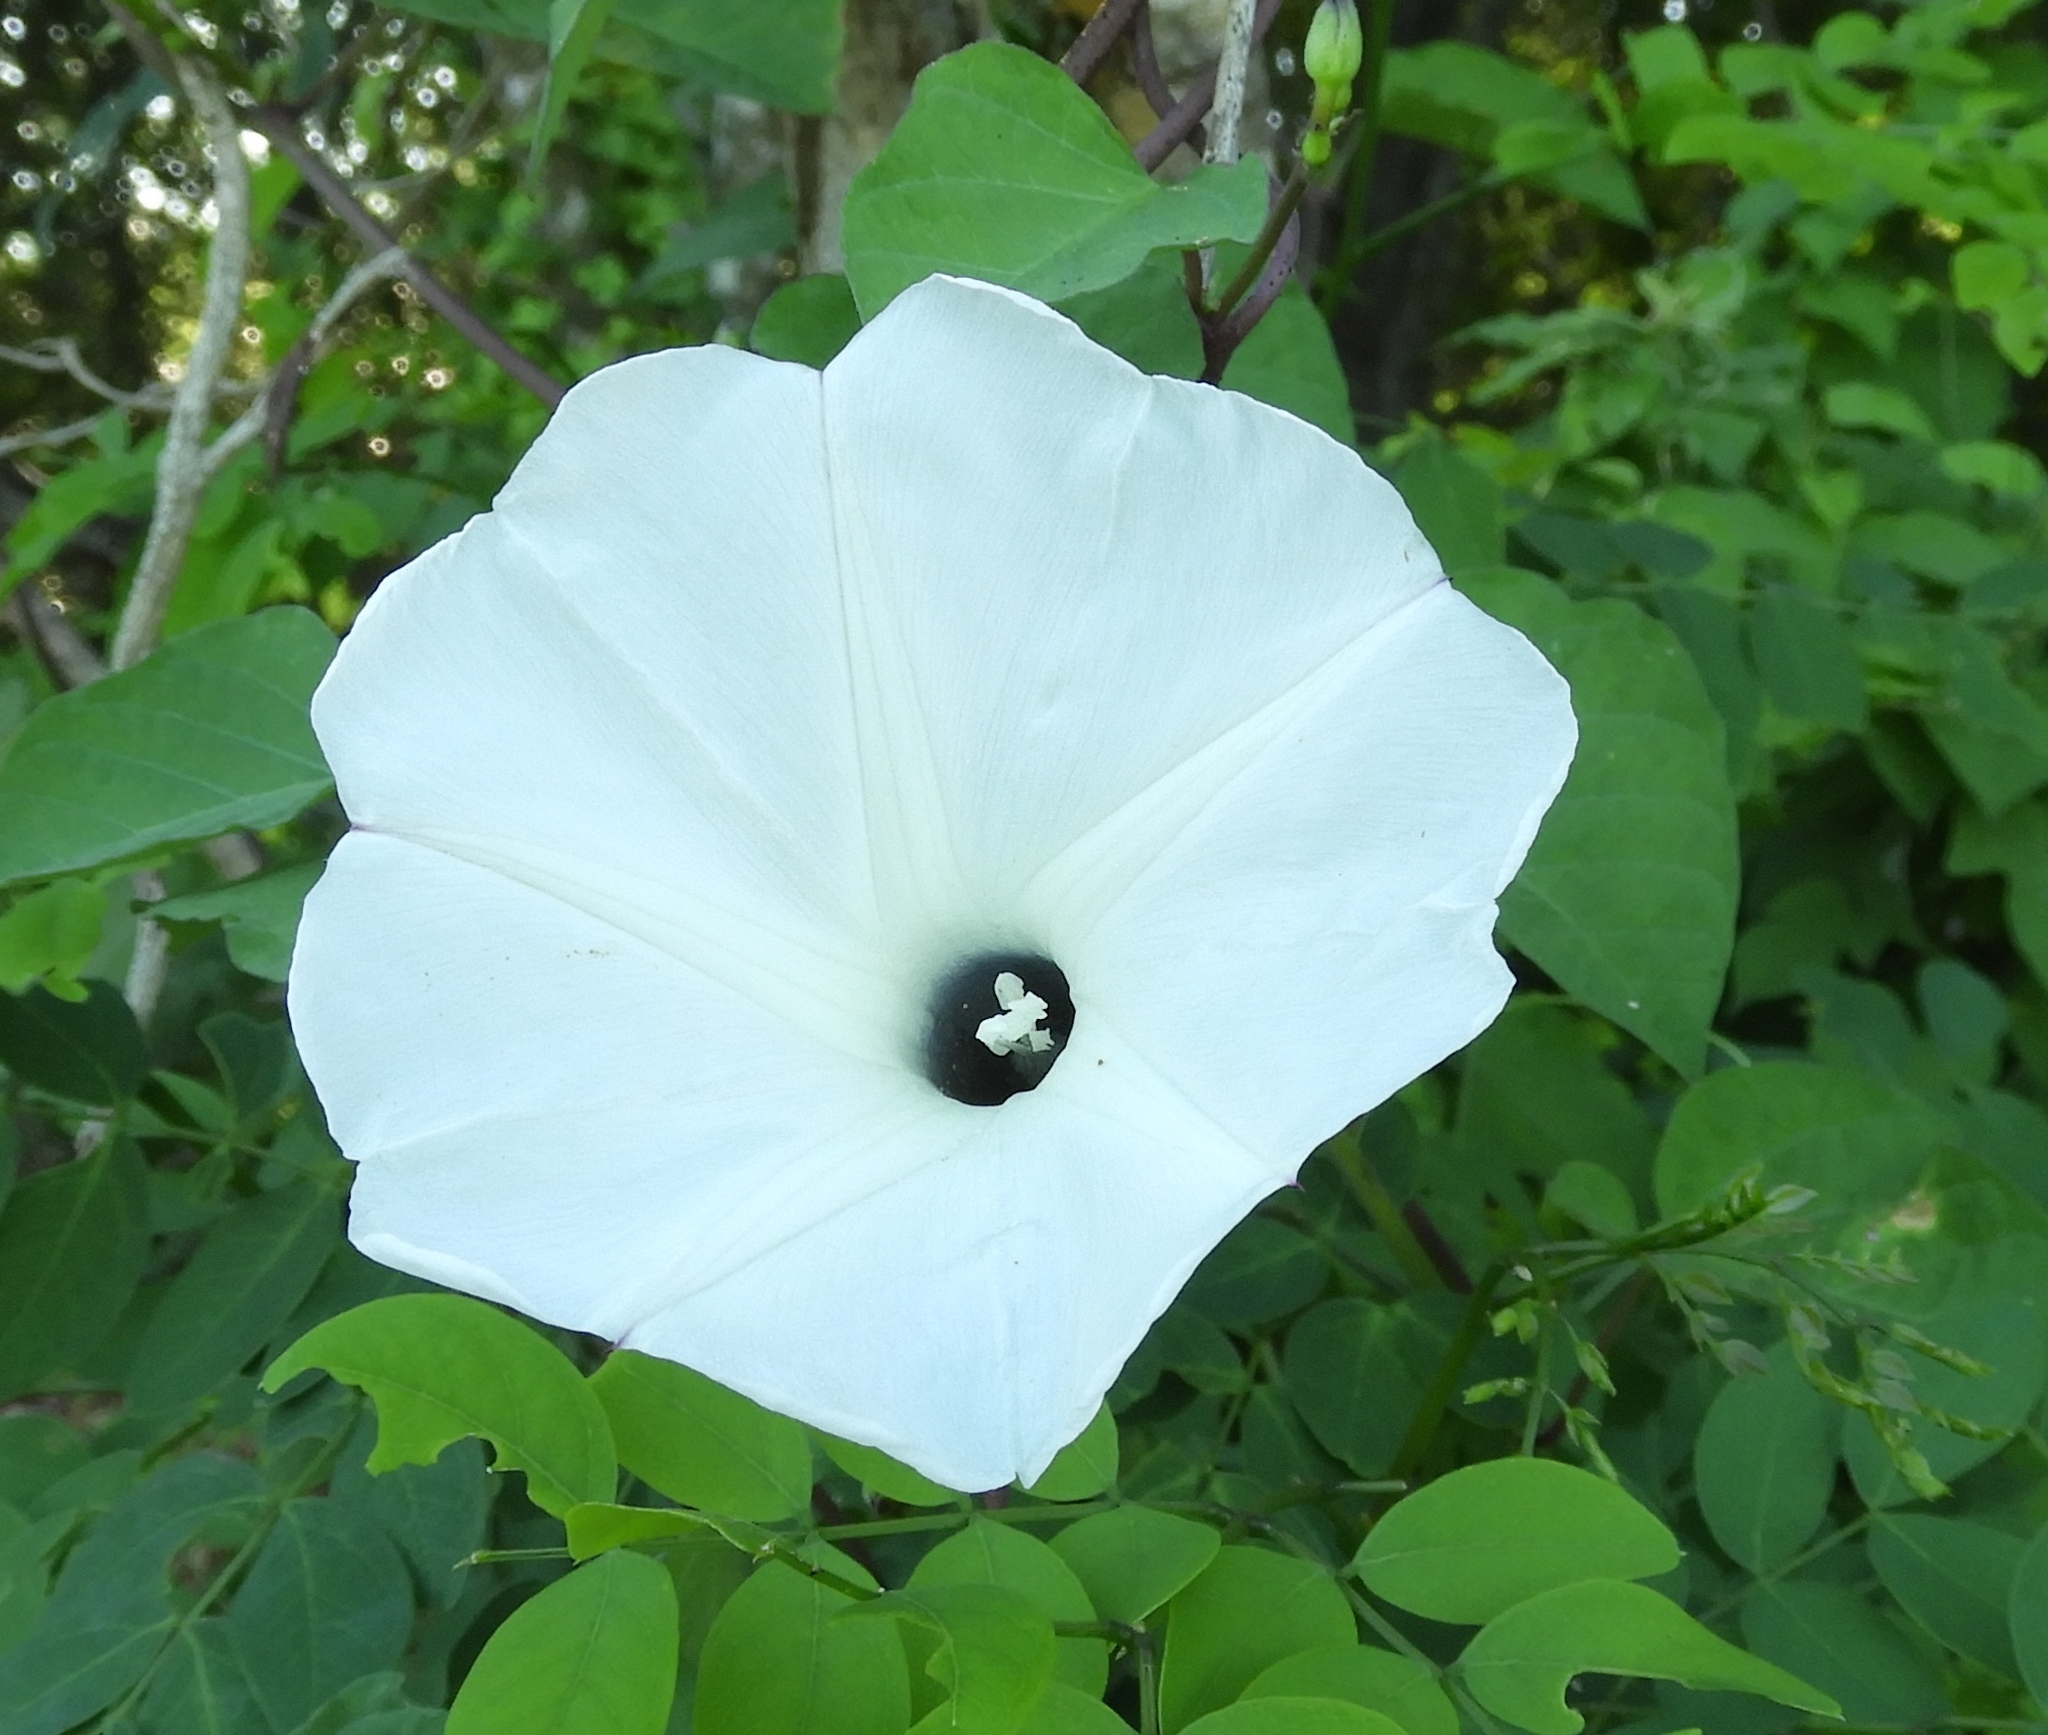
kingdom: Plantae
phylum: Tracheophyta
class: Magnoliopsida
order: Solanales
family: Convolvulaceae
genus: Ipomoea
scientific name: Ipomoea scopulorum
